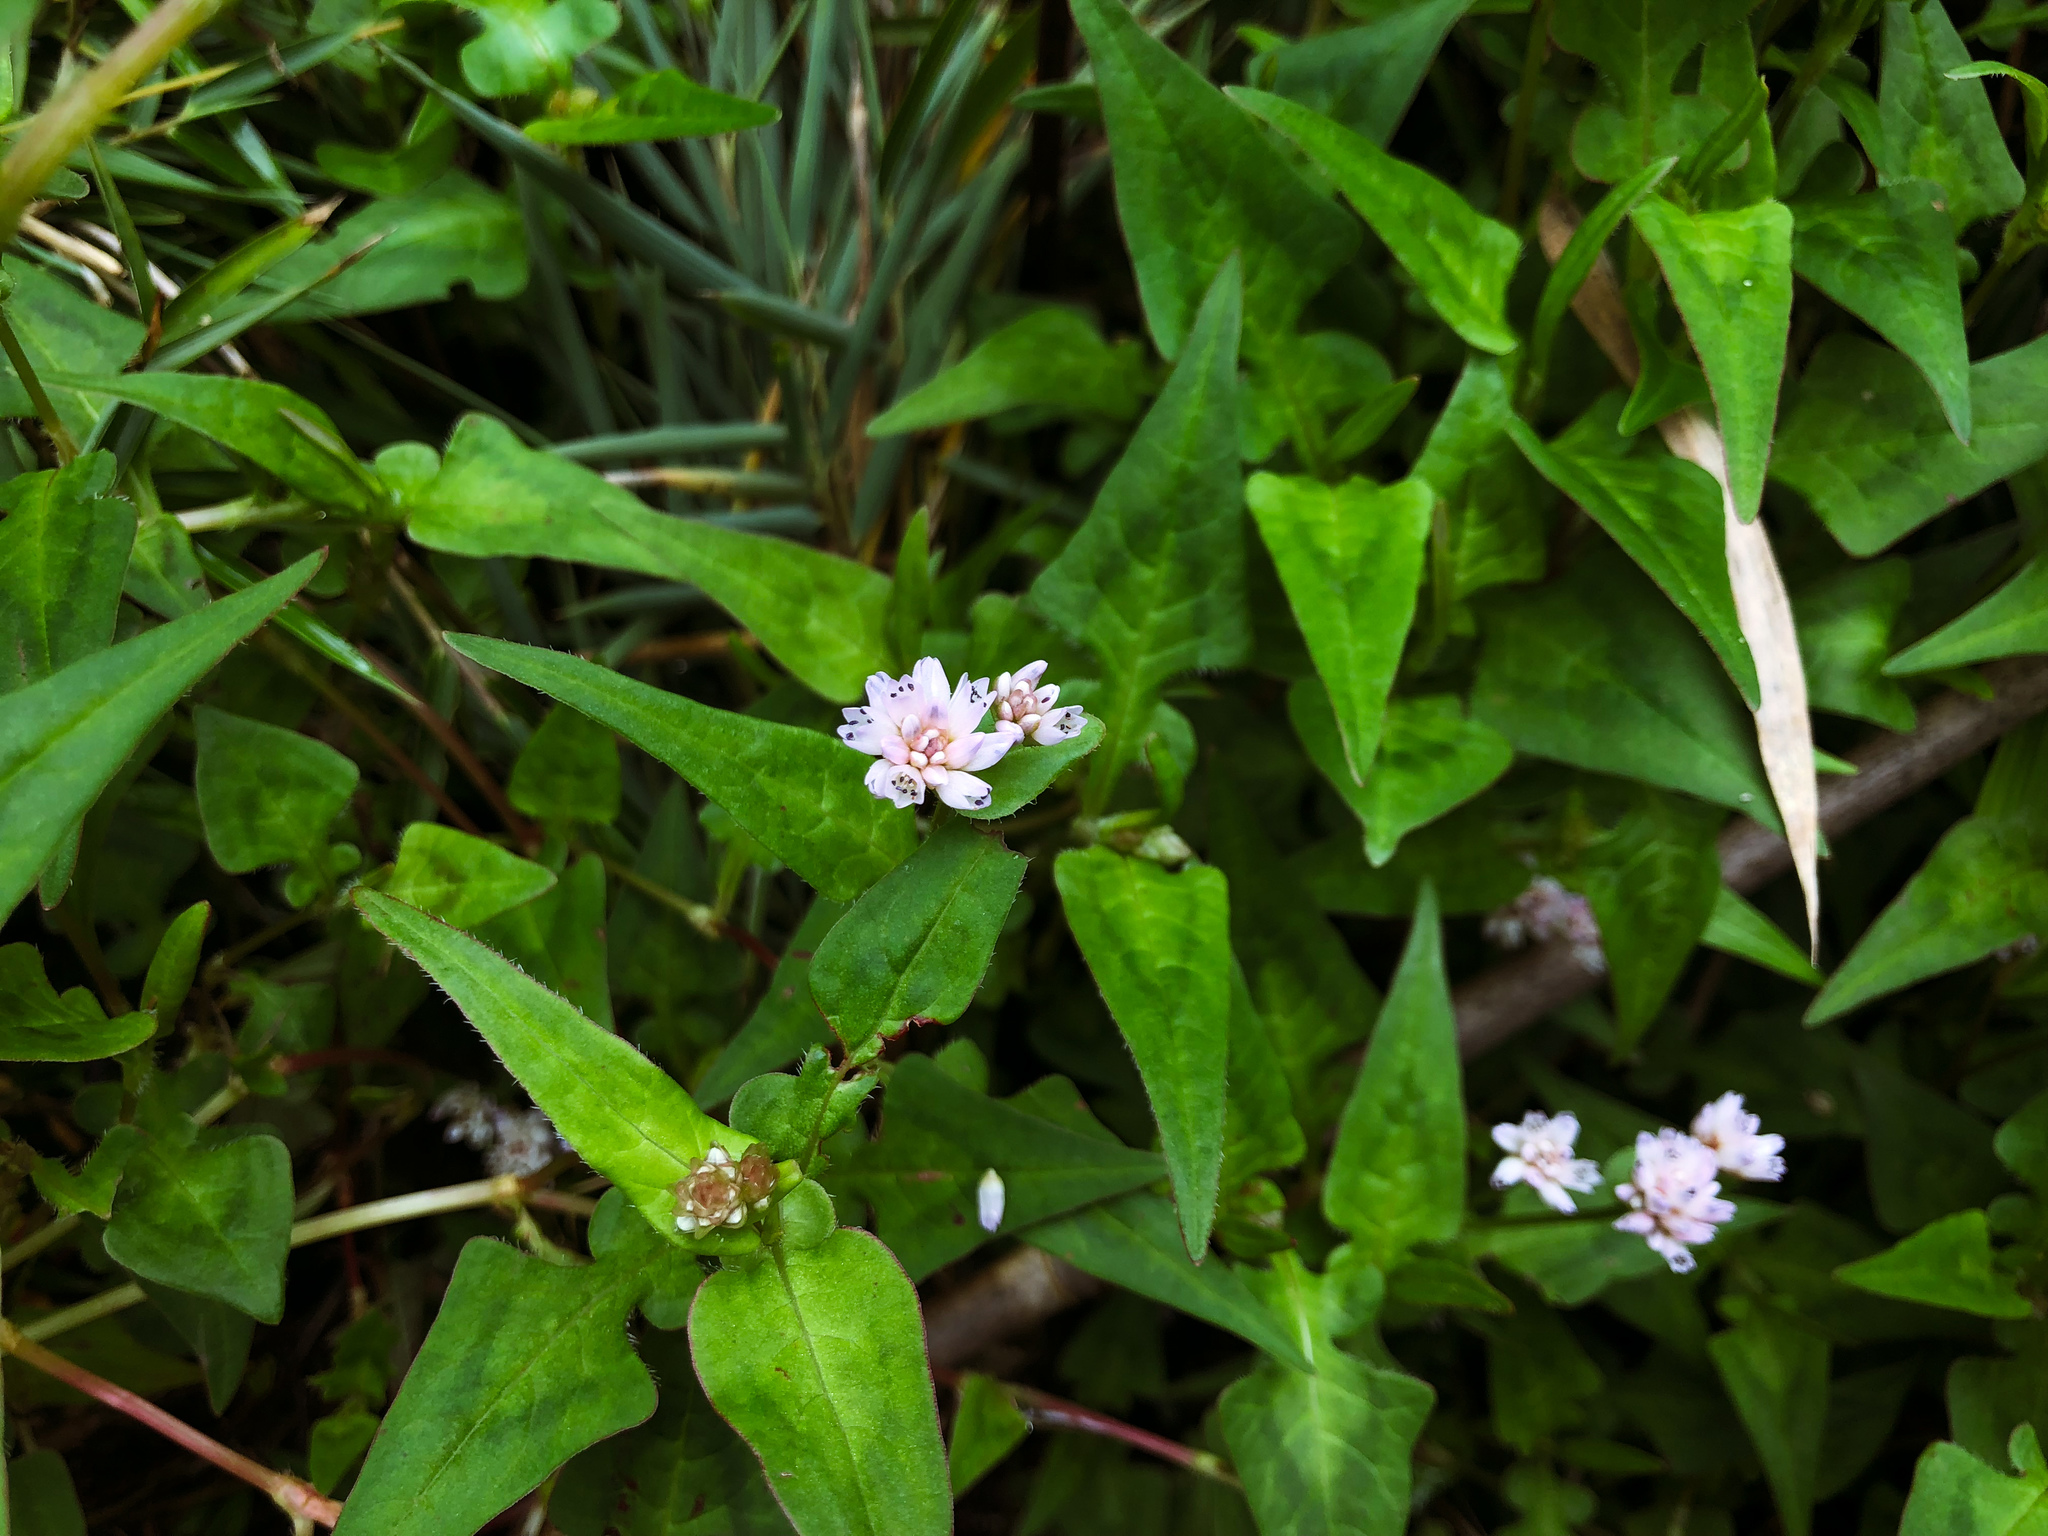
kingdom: Plantae
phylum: Tracheophyta
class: Magnoliopsida
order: Caryophyllales
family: Polygonaceae
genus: Persicaria
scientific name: Persicaria runcinata
